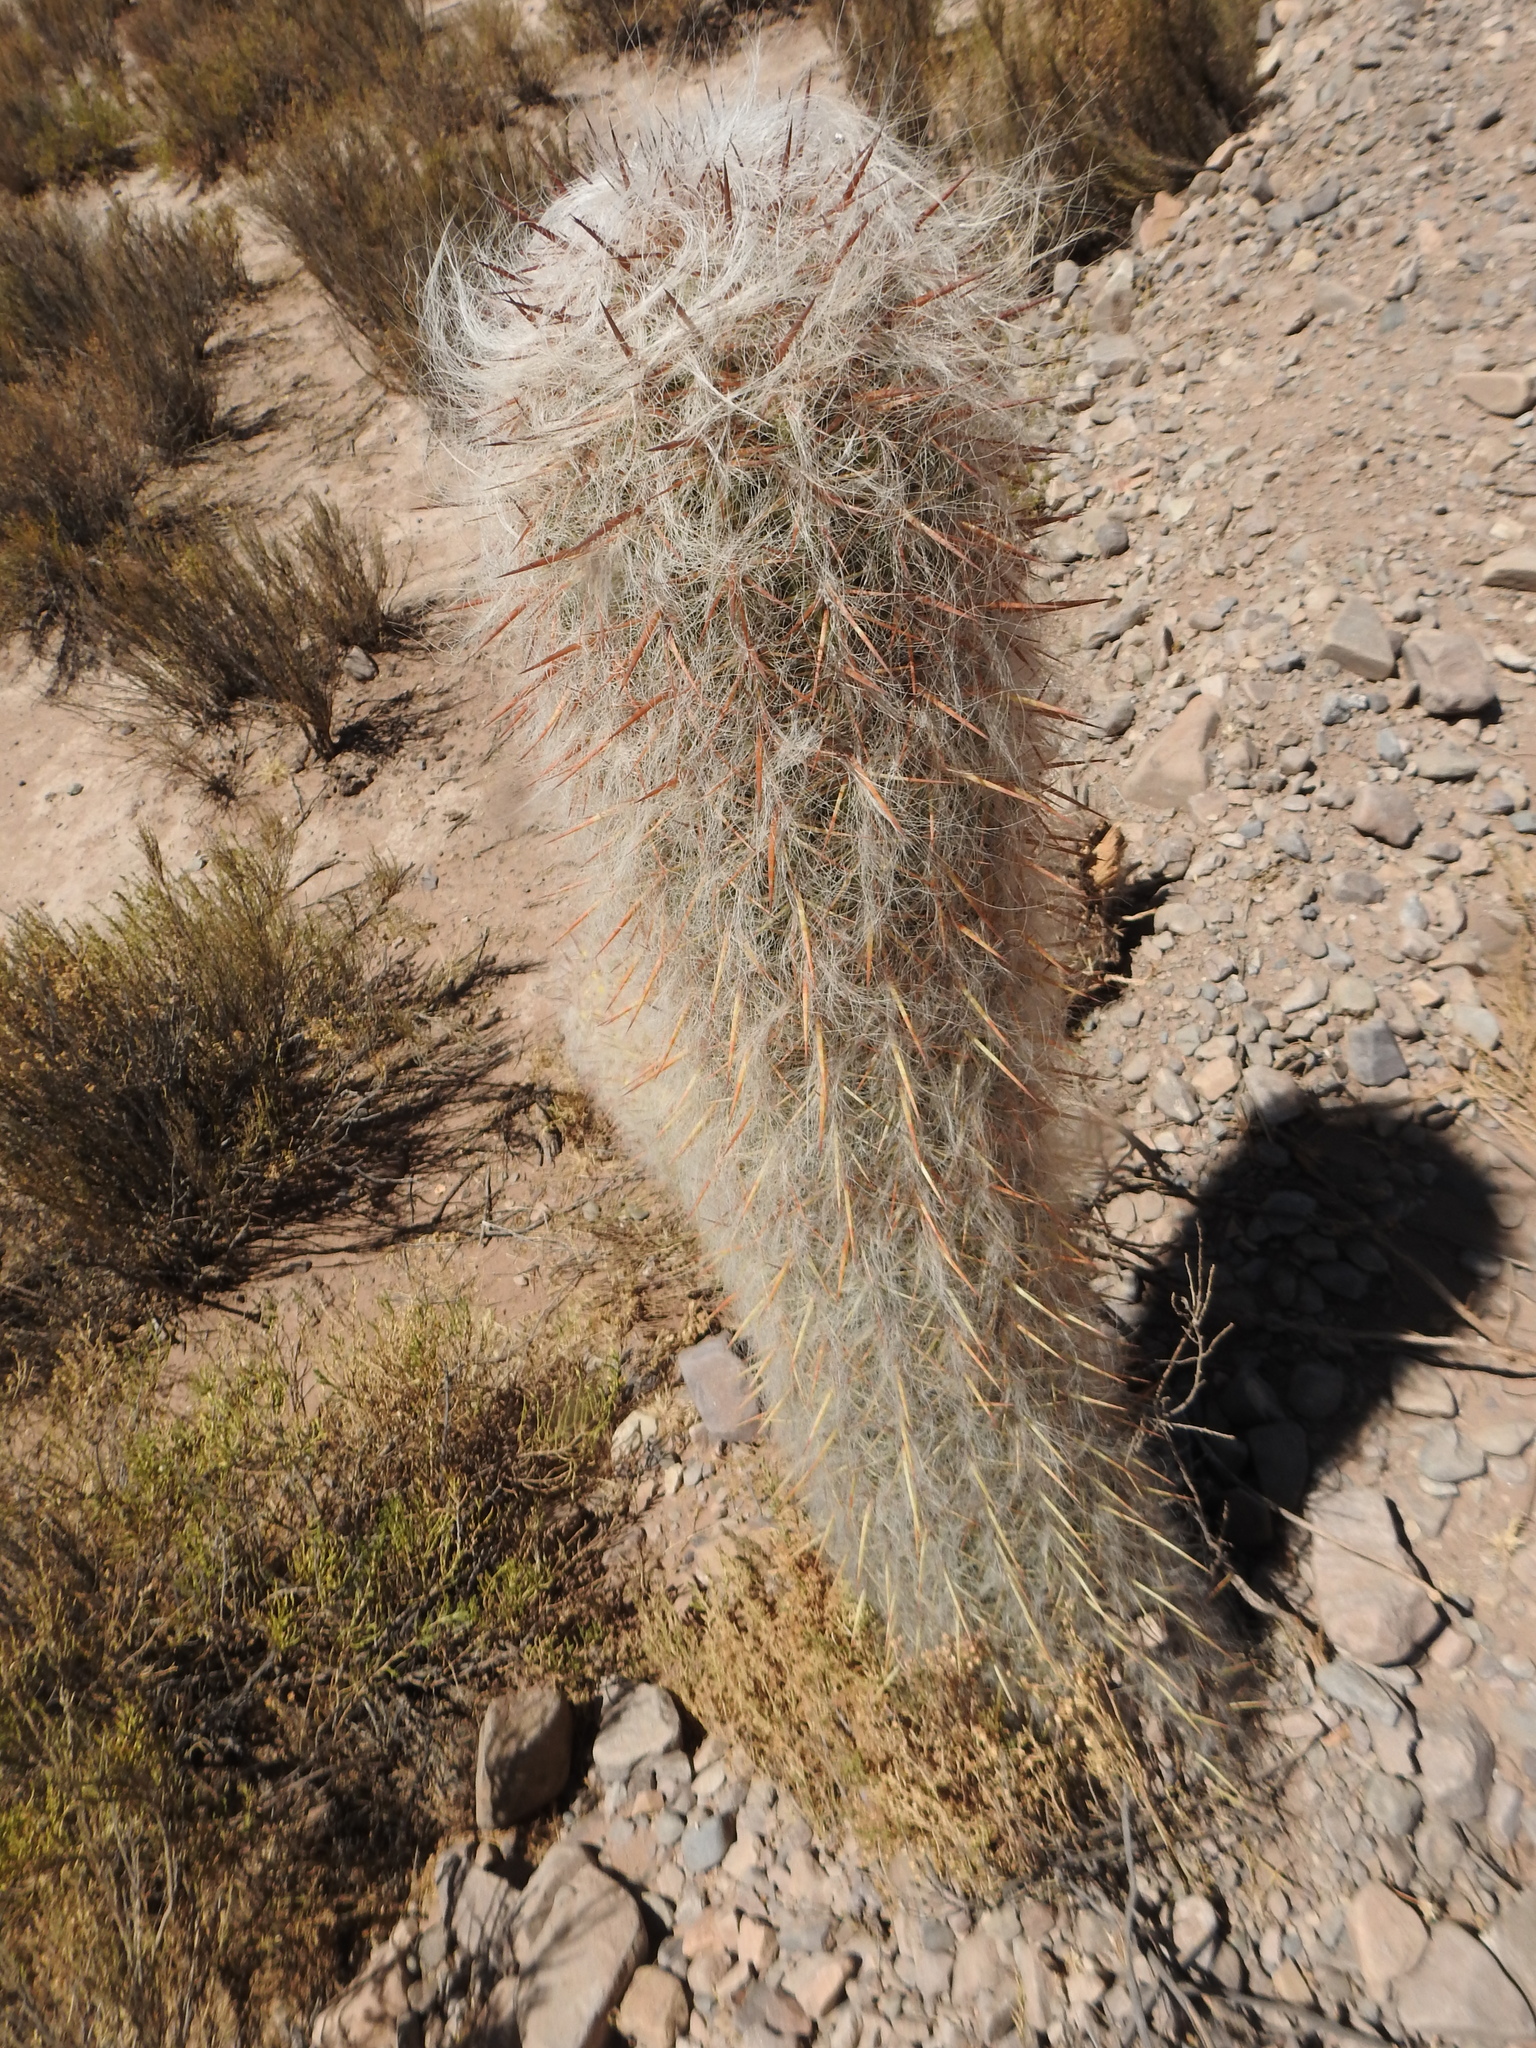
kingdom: Plantae
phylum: Tracheophyta
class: Magnoliopsida
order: Caryophyllales
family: Cactaceae
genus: Oreocereus
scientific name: Oreocereus celsianus
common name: Old-man-of-the-andes
